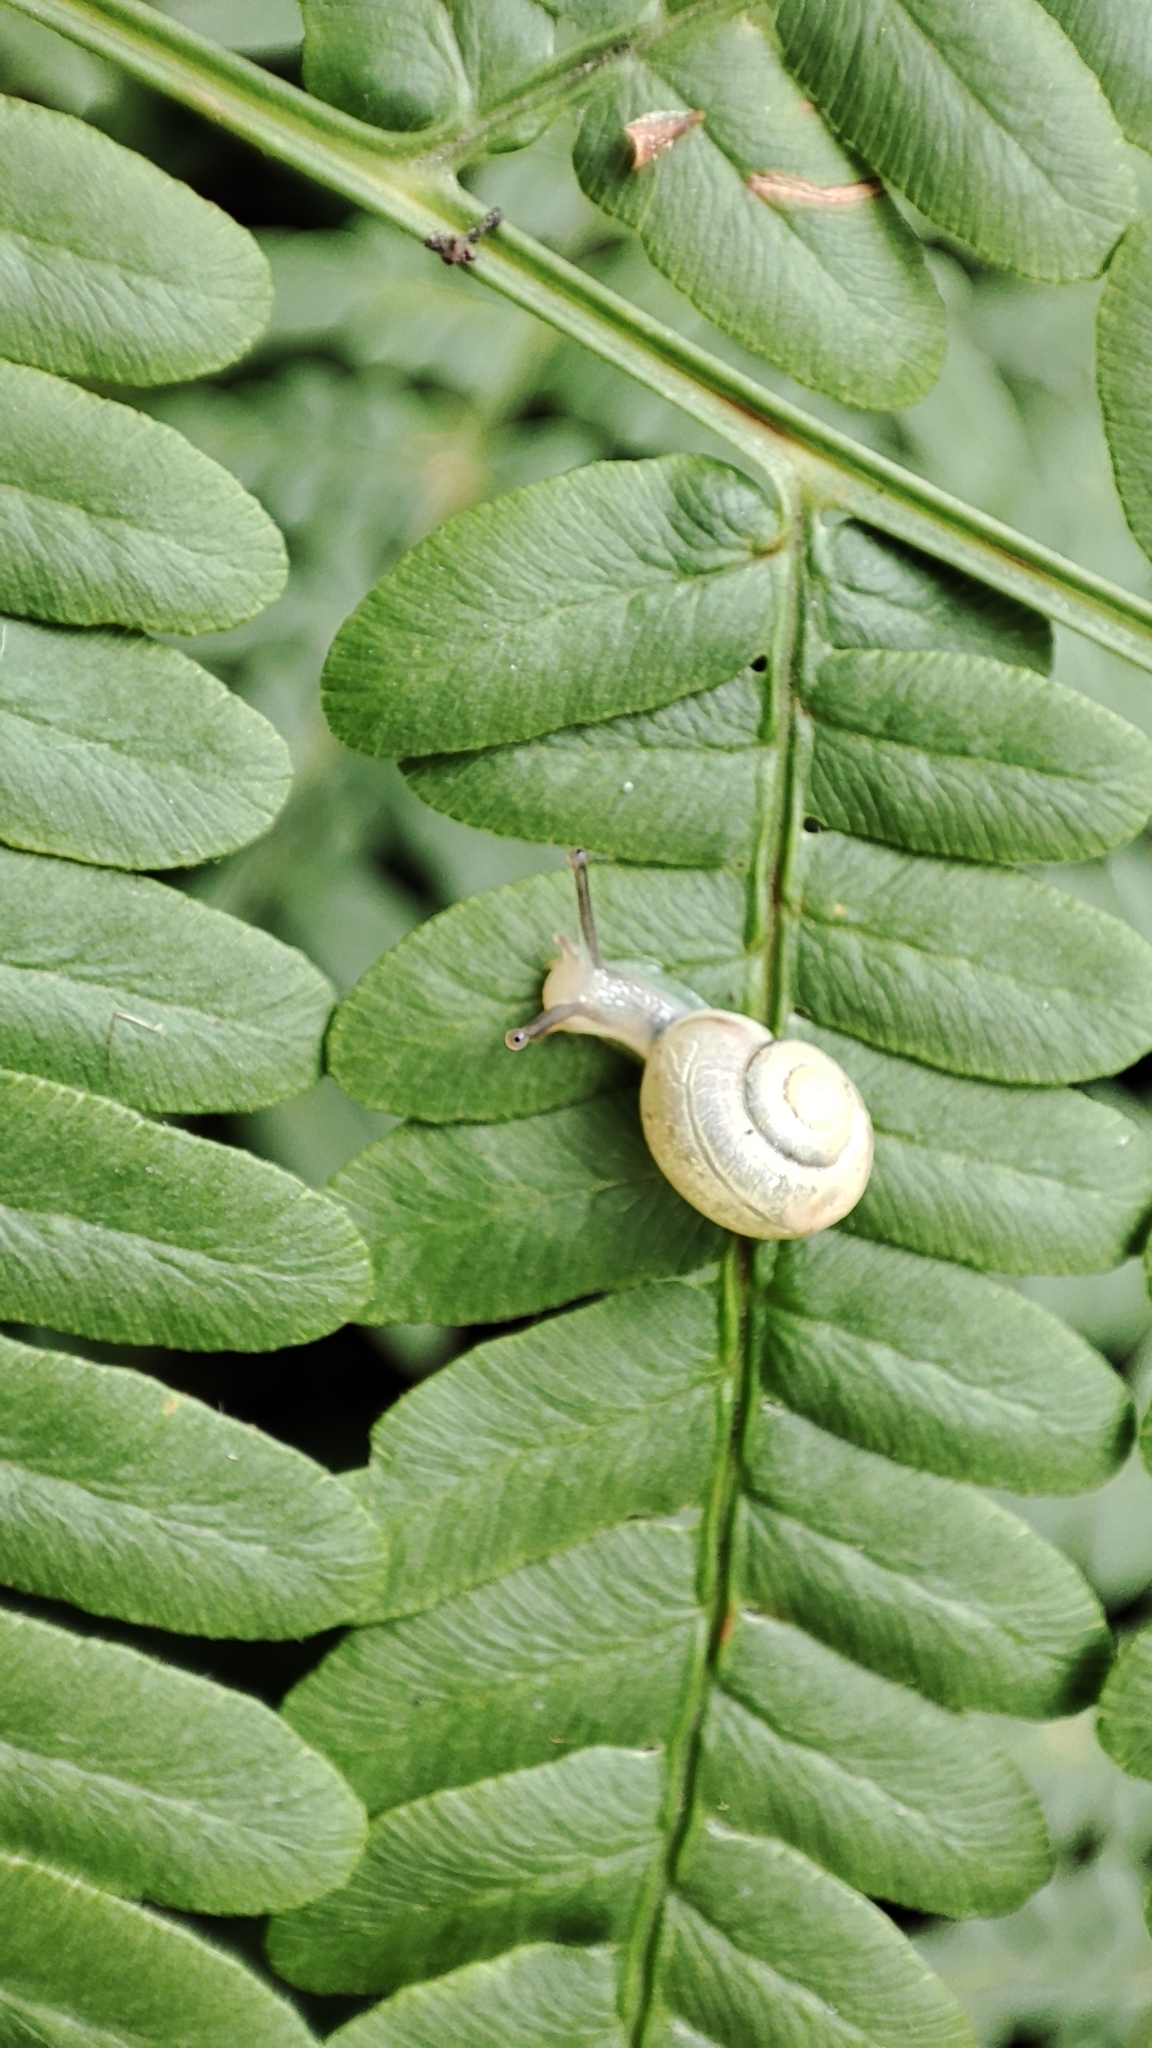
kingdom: Animalia
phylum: Mollusca
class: Gastropoda
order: Stylommatophora
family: Camaenidae
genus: Fruticicola
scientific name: Fruticicola fruticum
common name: Bush snail
